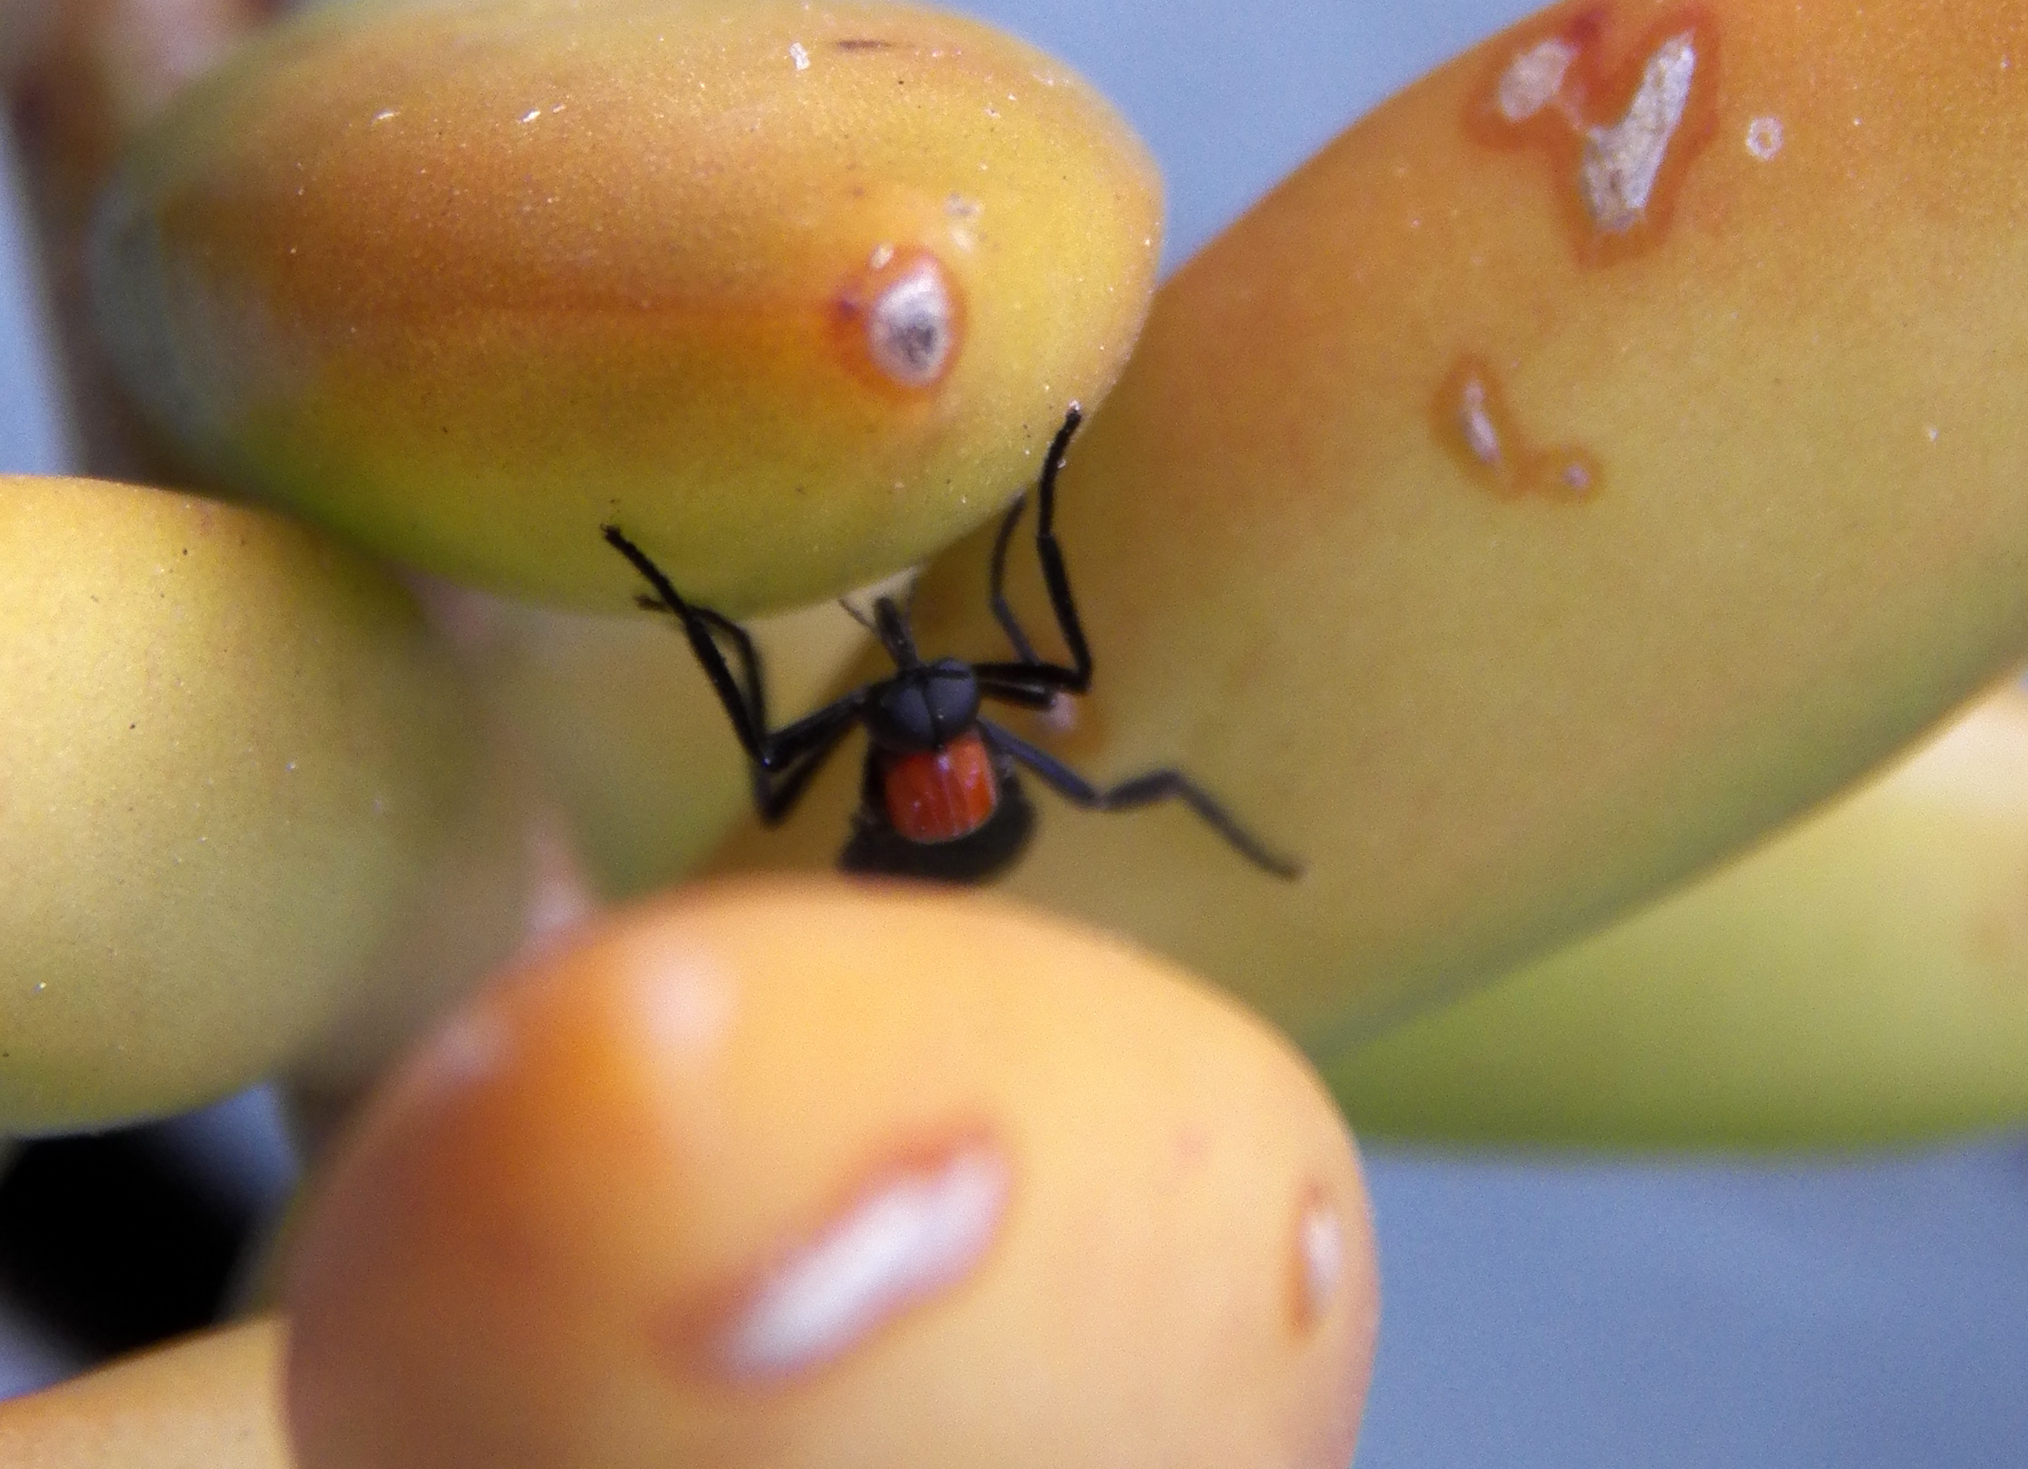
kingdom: Animalia
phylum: Arthropoda
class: Insecta
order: Diptera
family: Bibionidae
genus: Plecia
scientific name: Plecia nearctica
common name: March fly
